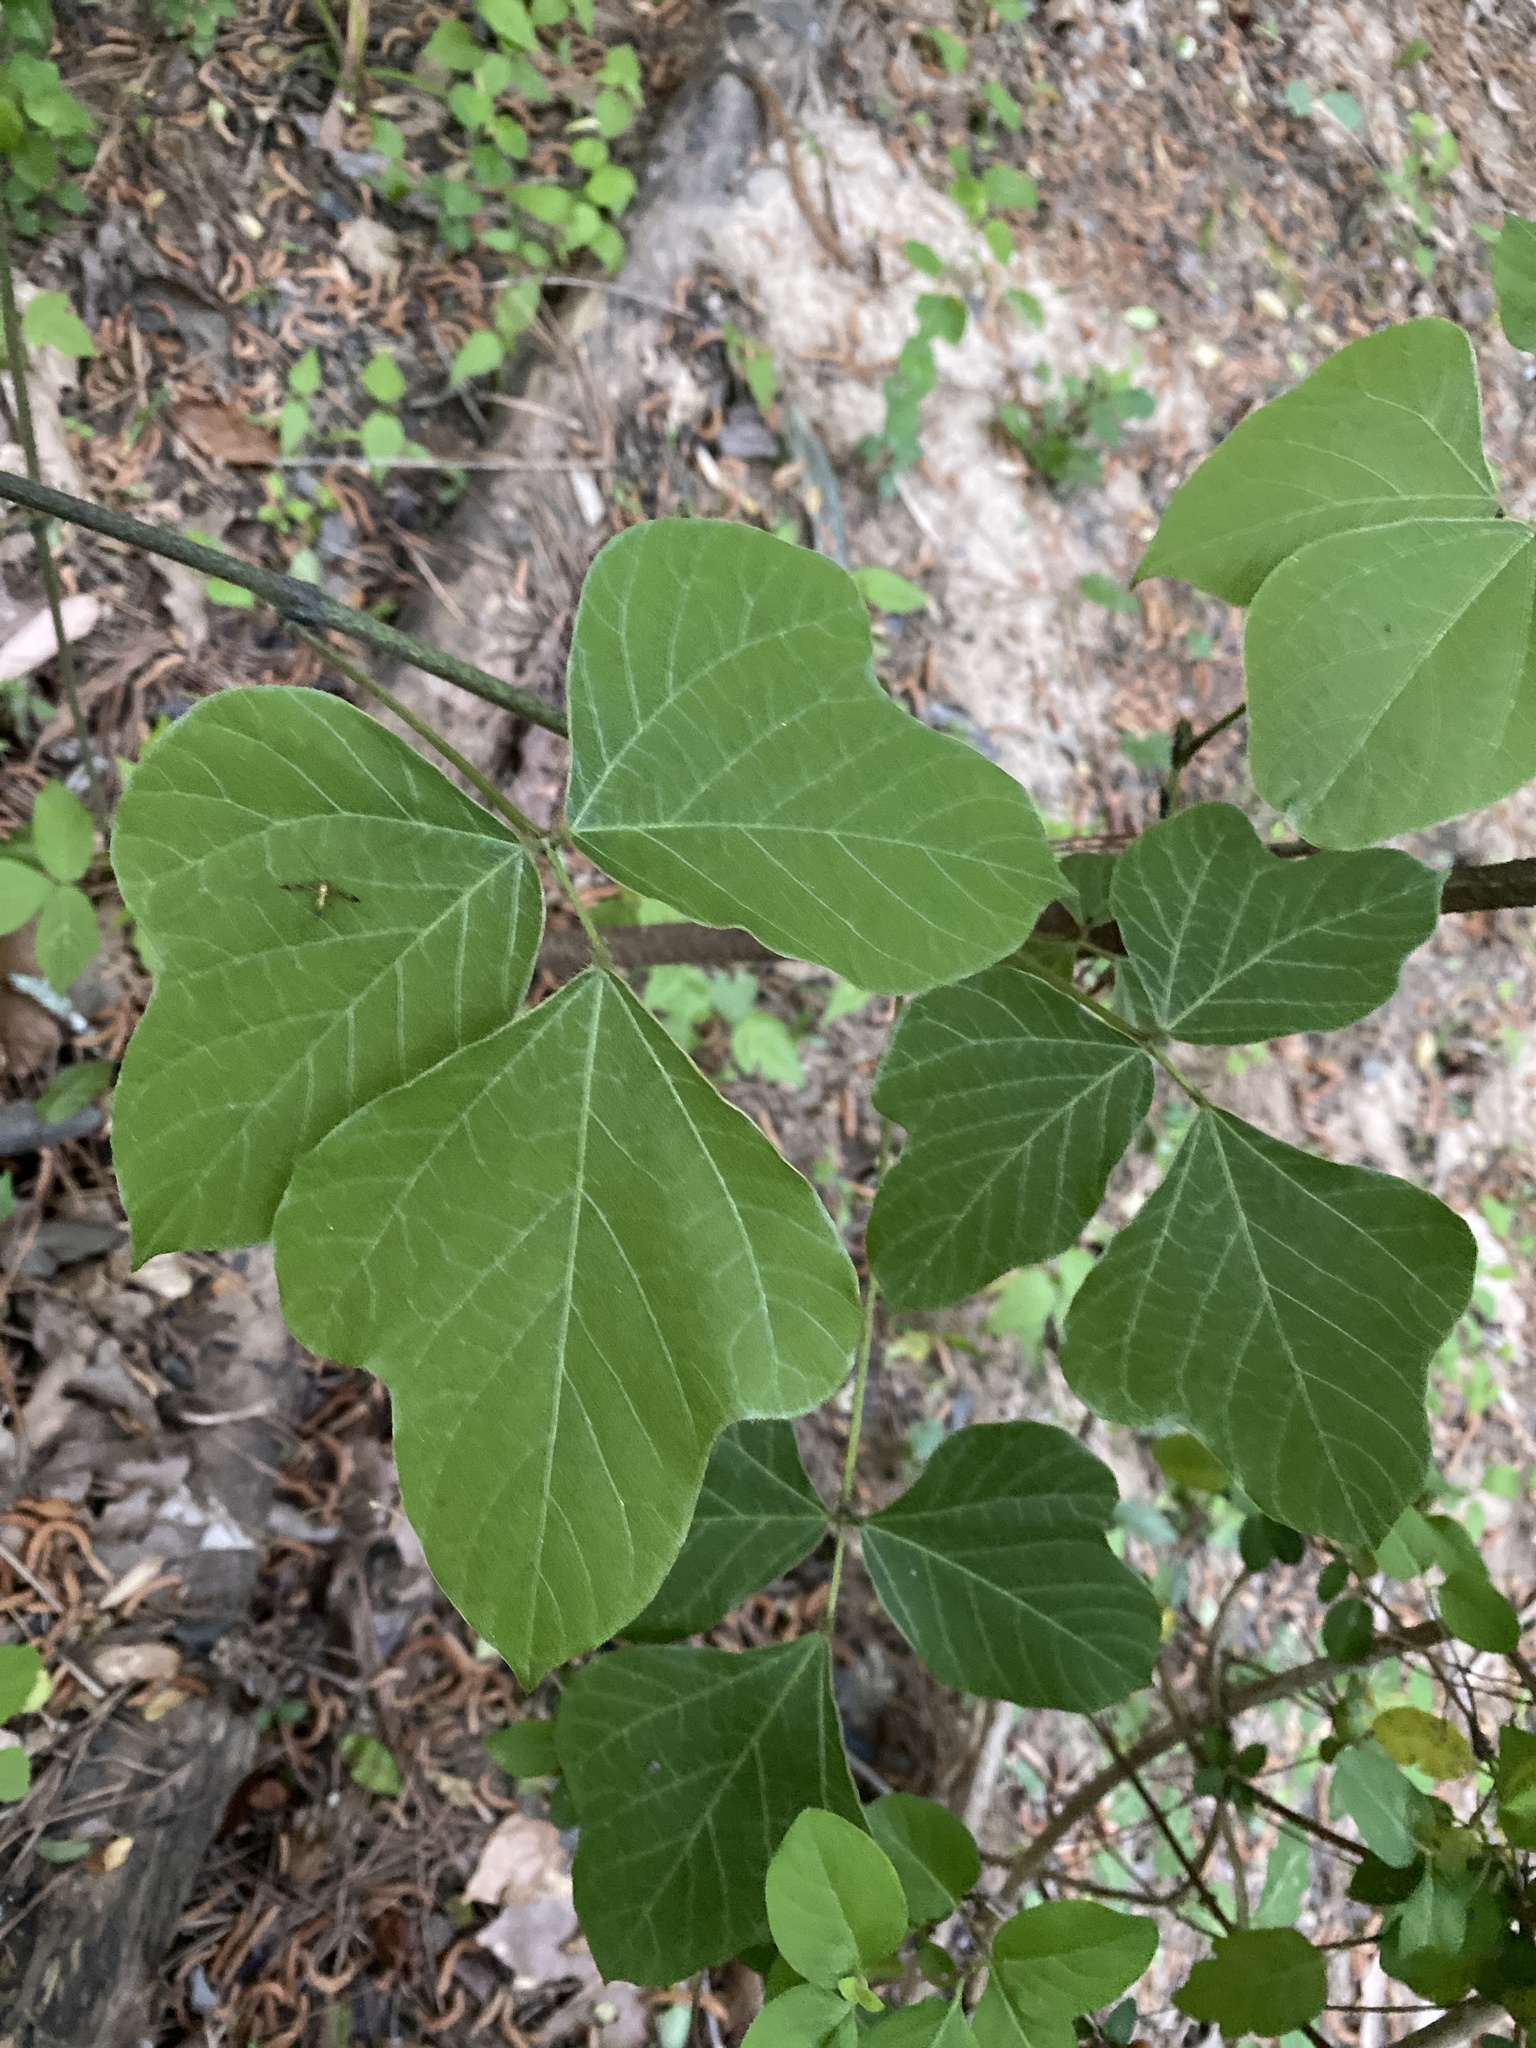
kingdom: Plantae
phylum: Tracheophyta
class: Magnoliopsida
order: Fabales
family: Fabaceae
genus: Pueraria
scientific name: Pueraria montana
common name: Kudzu
